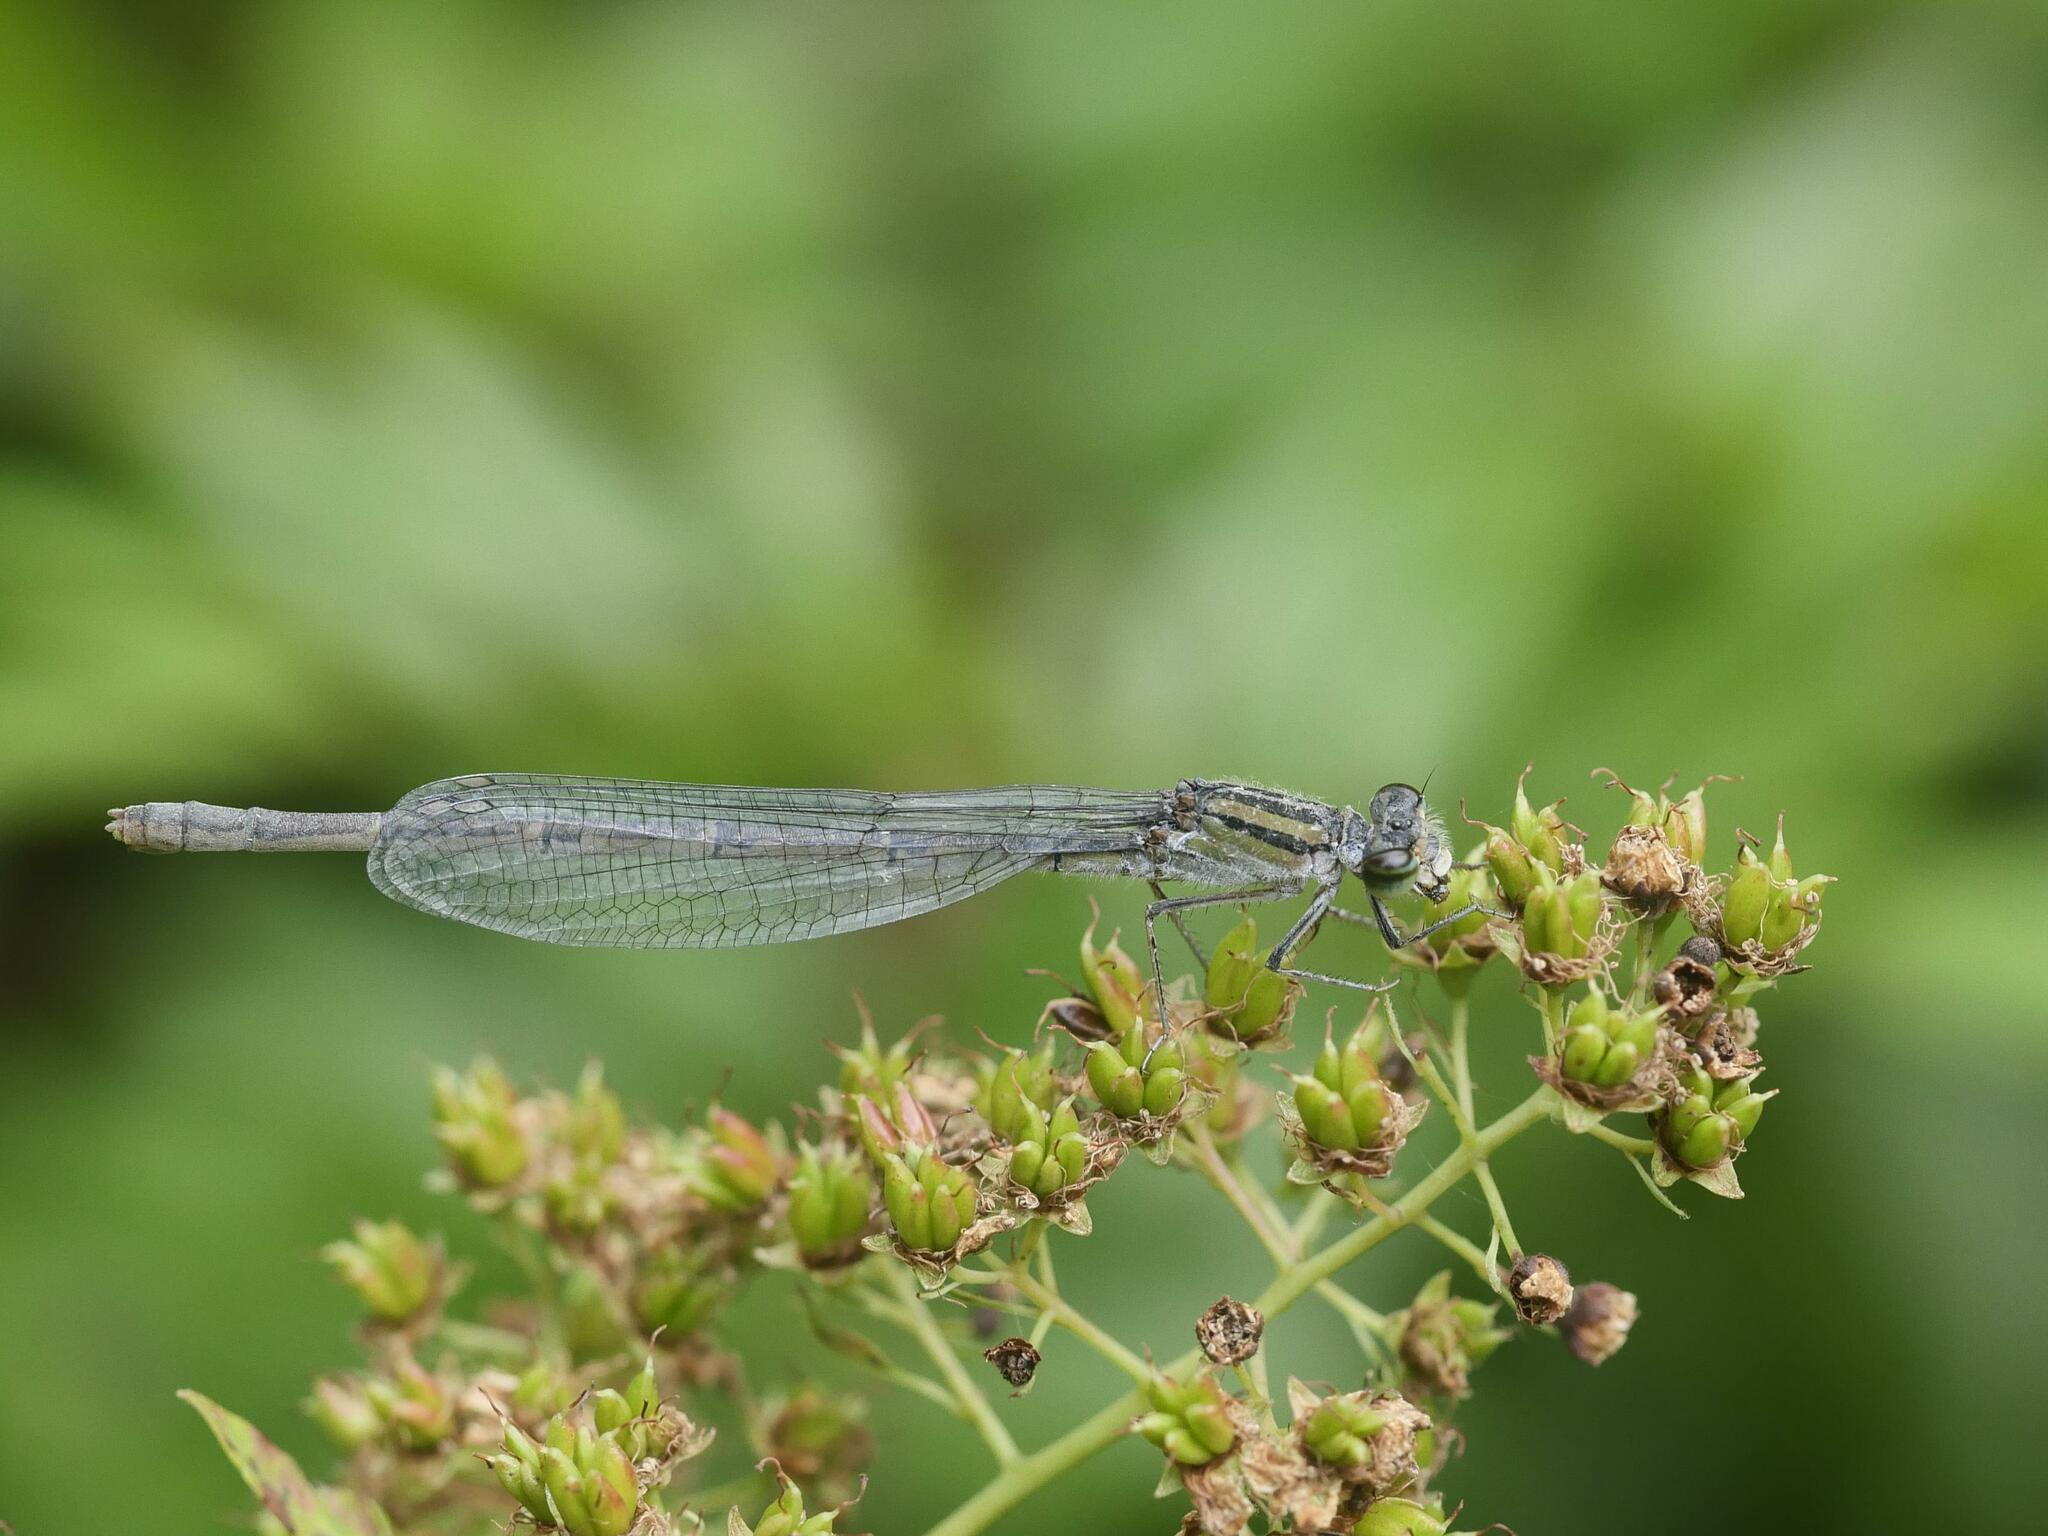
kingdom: Animalia
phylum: Arthropoda
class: Insecta
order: Odonata
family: Coenagrionidae
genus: Enallagma
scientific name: Enallagma civile
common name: Damselfly
